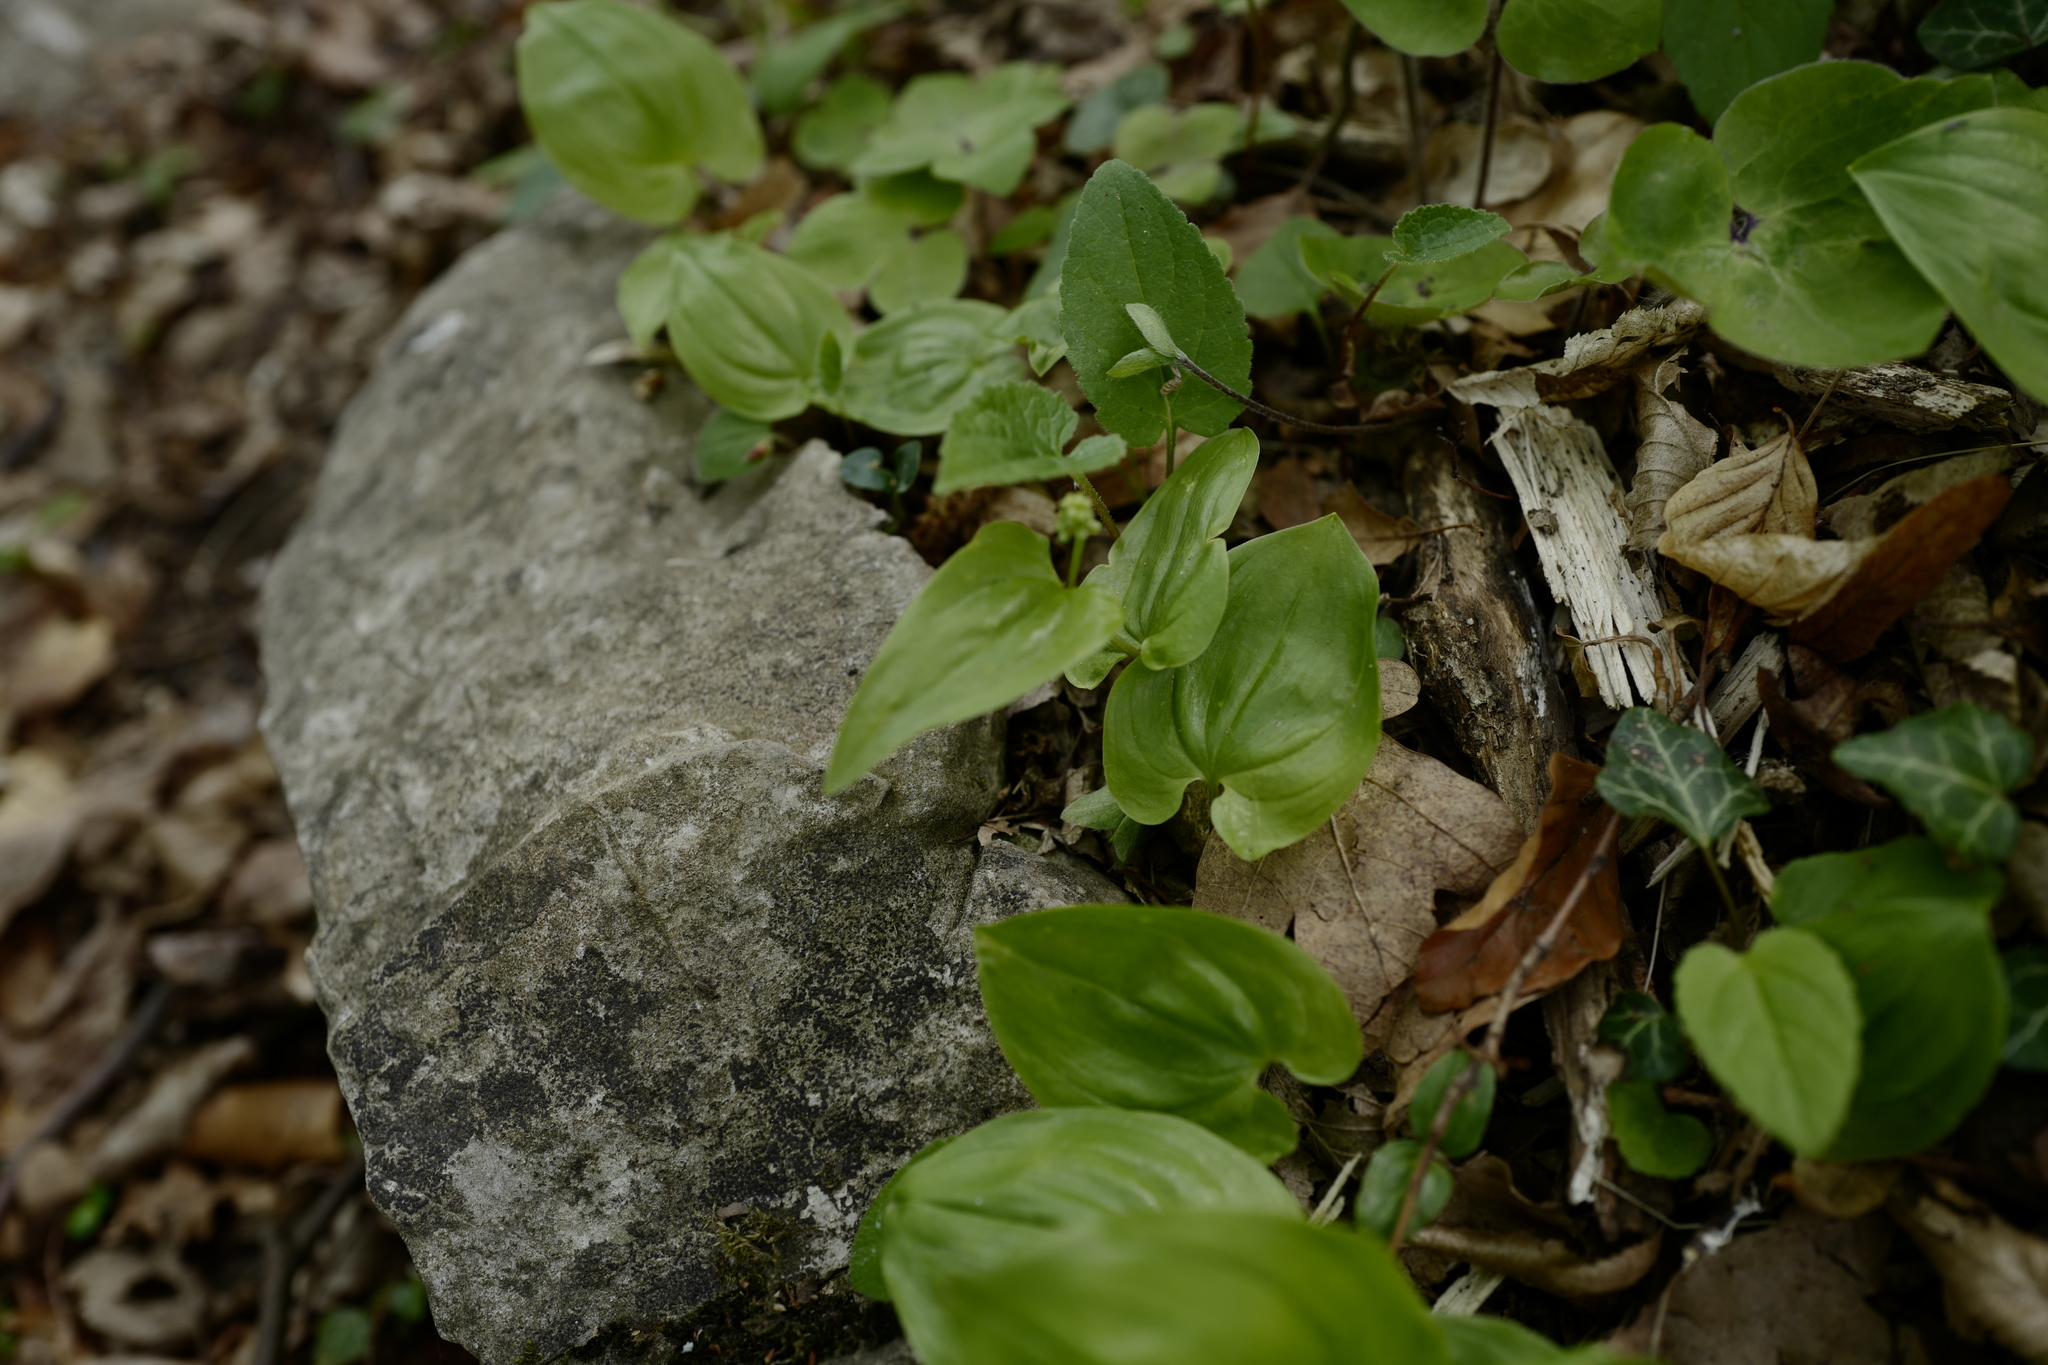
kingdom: Plantae
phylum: Tracheophyta
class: Liliopsida
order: Asparagales
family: Asparagaceae
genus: Maianthemum
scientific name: Maianthemum bifolium
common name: May lily
